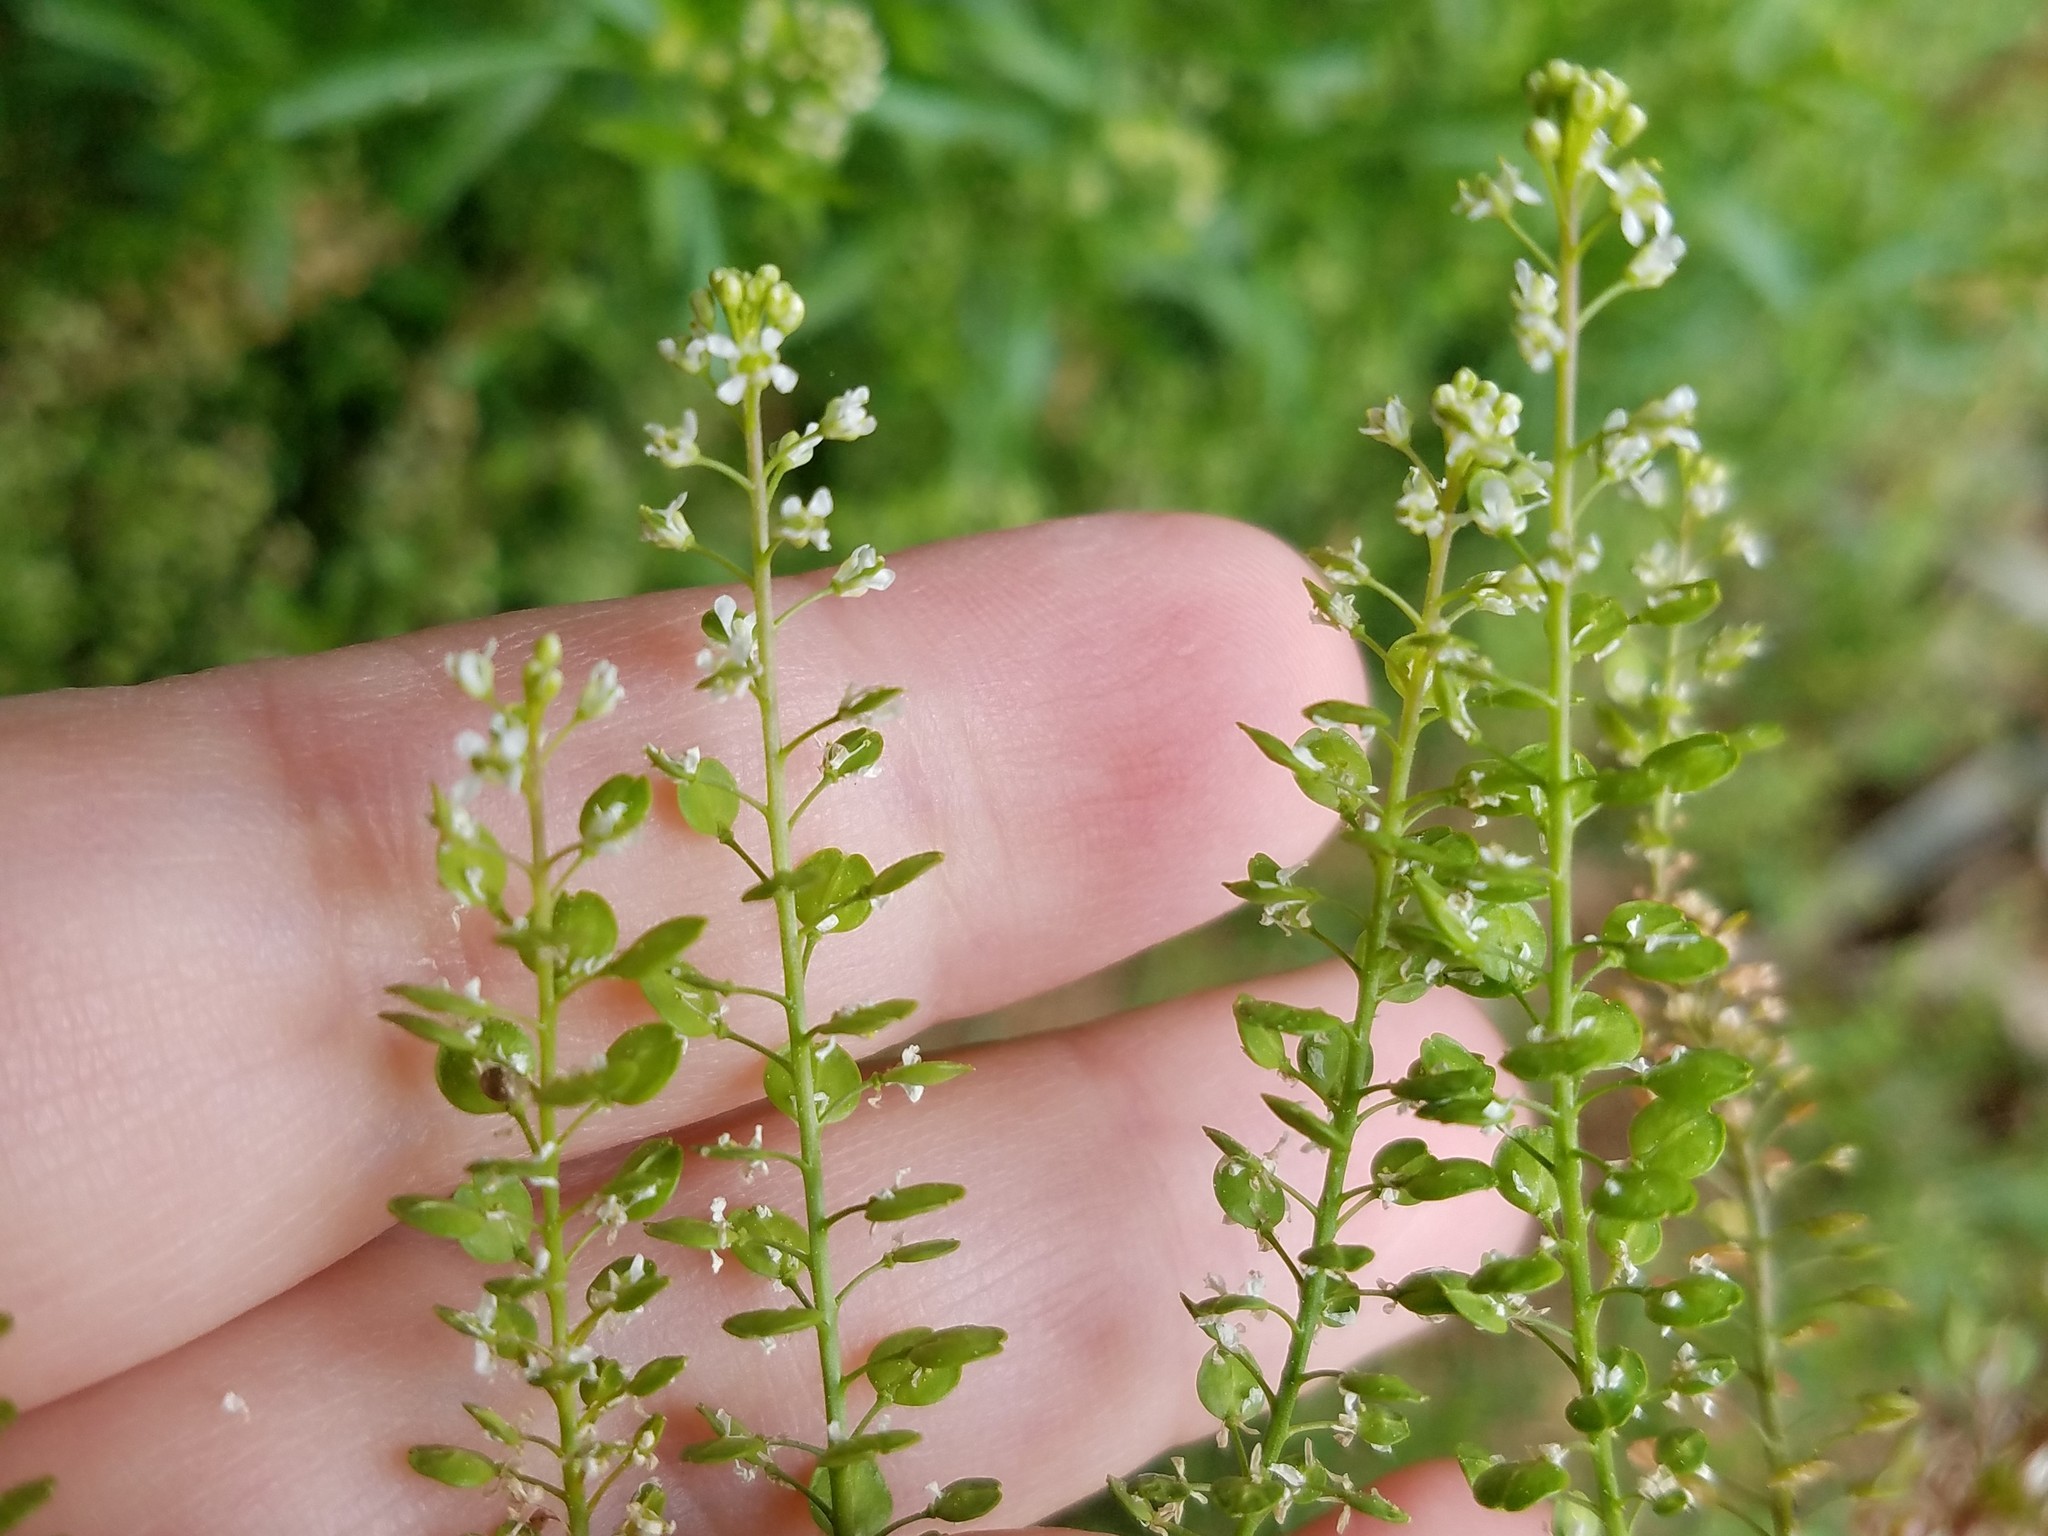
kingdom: Plantae
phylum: Tracheophyta
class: Magnoliopsida
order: Brassicales
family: Brassicaceae
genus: Lepidium
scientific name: Lepidium virginicum
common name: Least pepperwort
